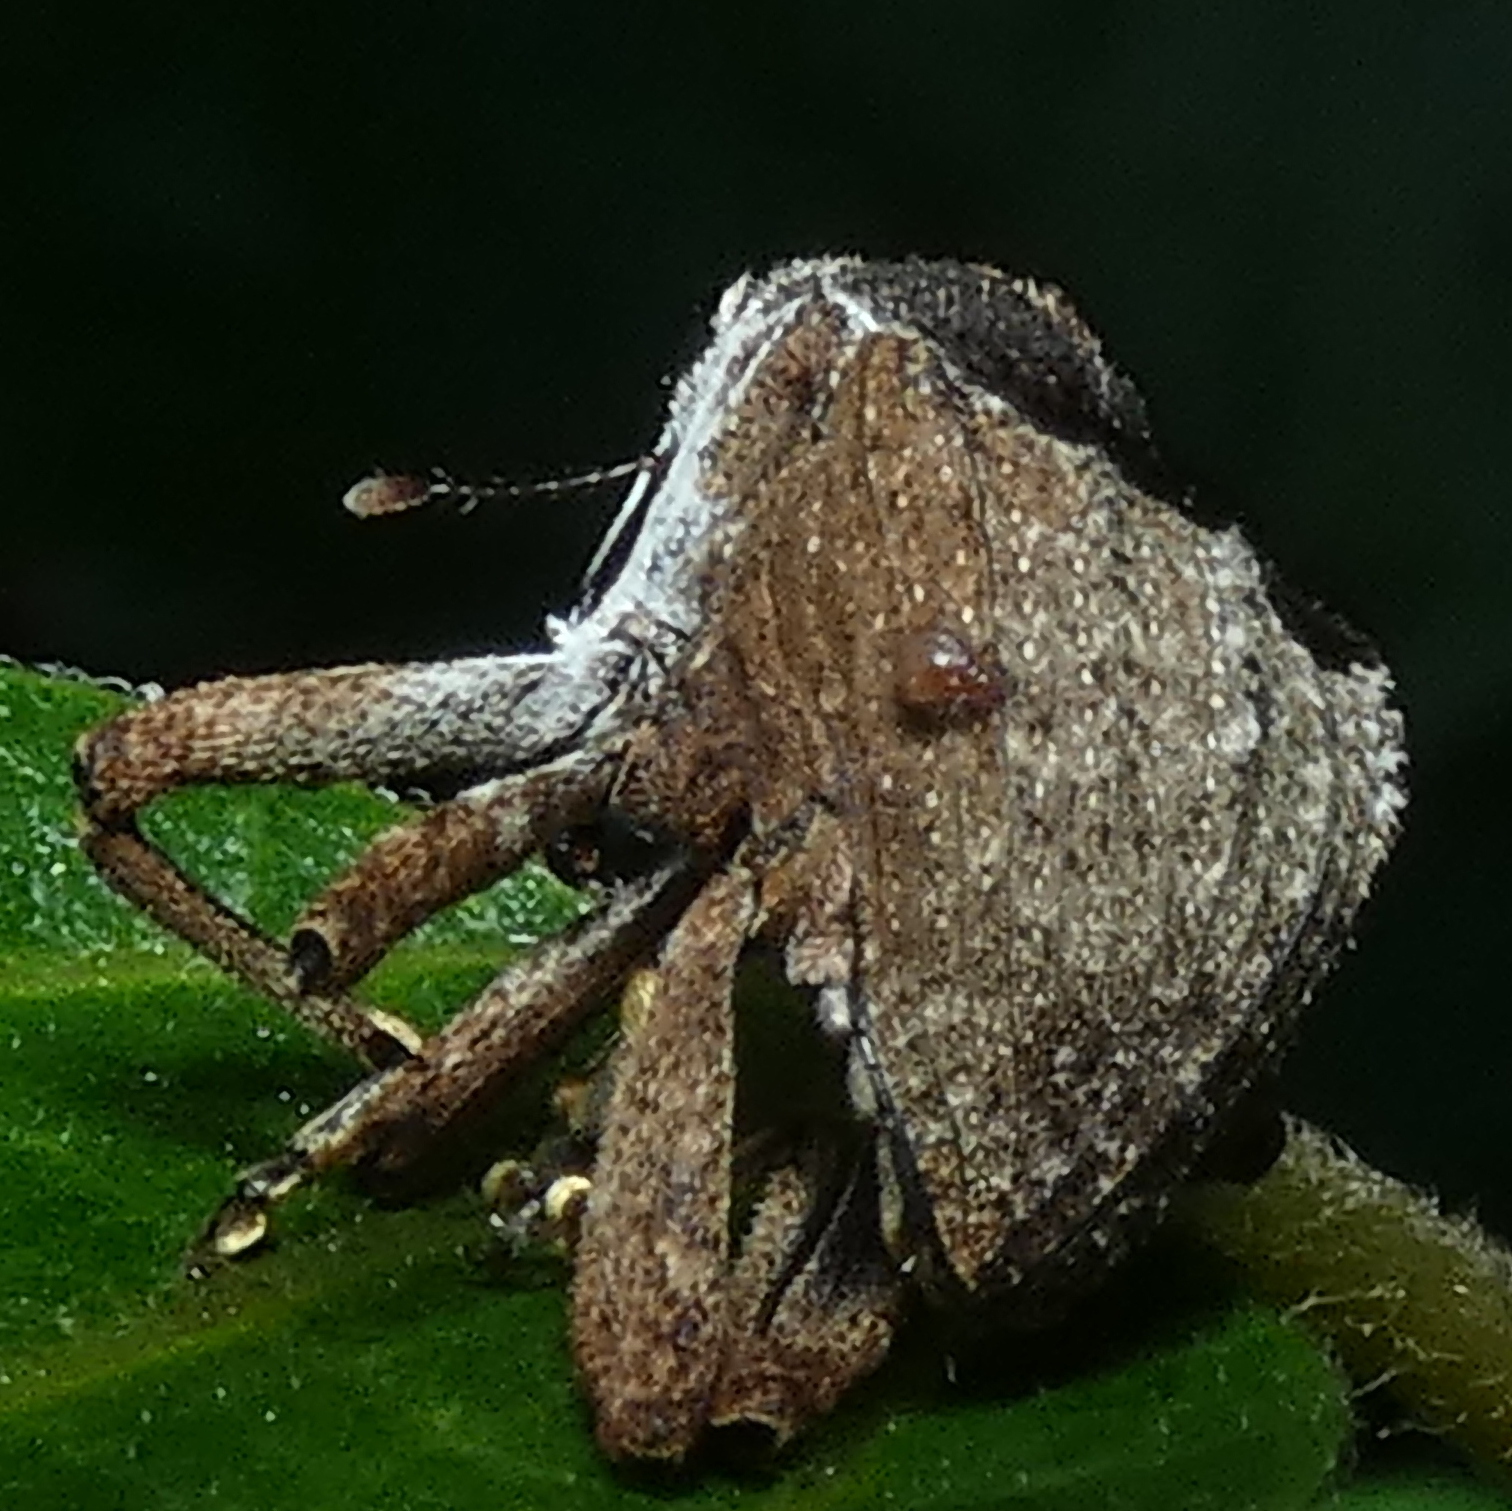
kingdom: Animalia
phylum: Arthropoda
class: Insecta
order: Coleoptera
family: Curculionidae
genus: Eubulus
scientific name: Eubulus triangularis
